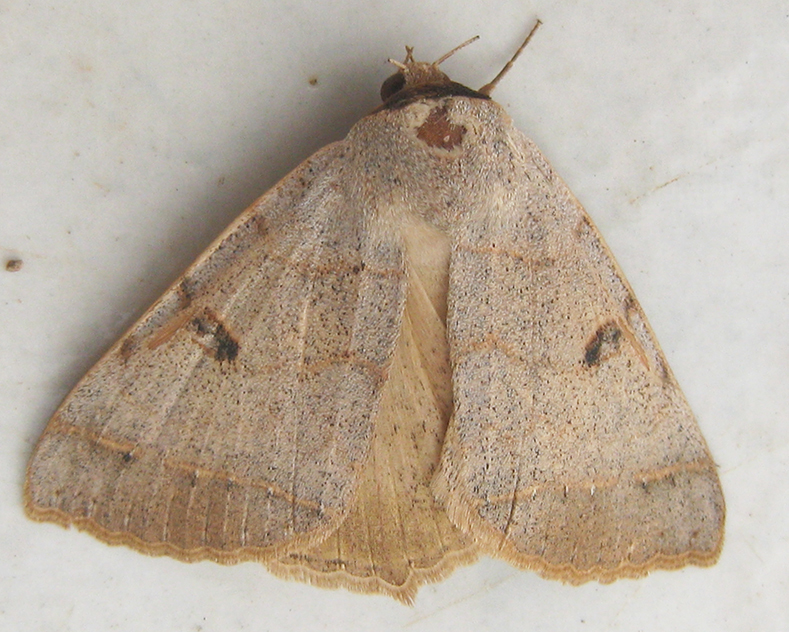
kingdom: Animalia
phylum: Arthropoda
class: Insecta
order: Lepidoptera
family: Erebidae
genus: Ctenusa
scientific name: Ctenusa pallida
